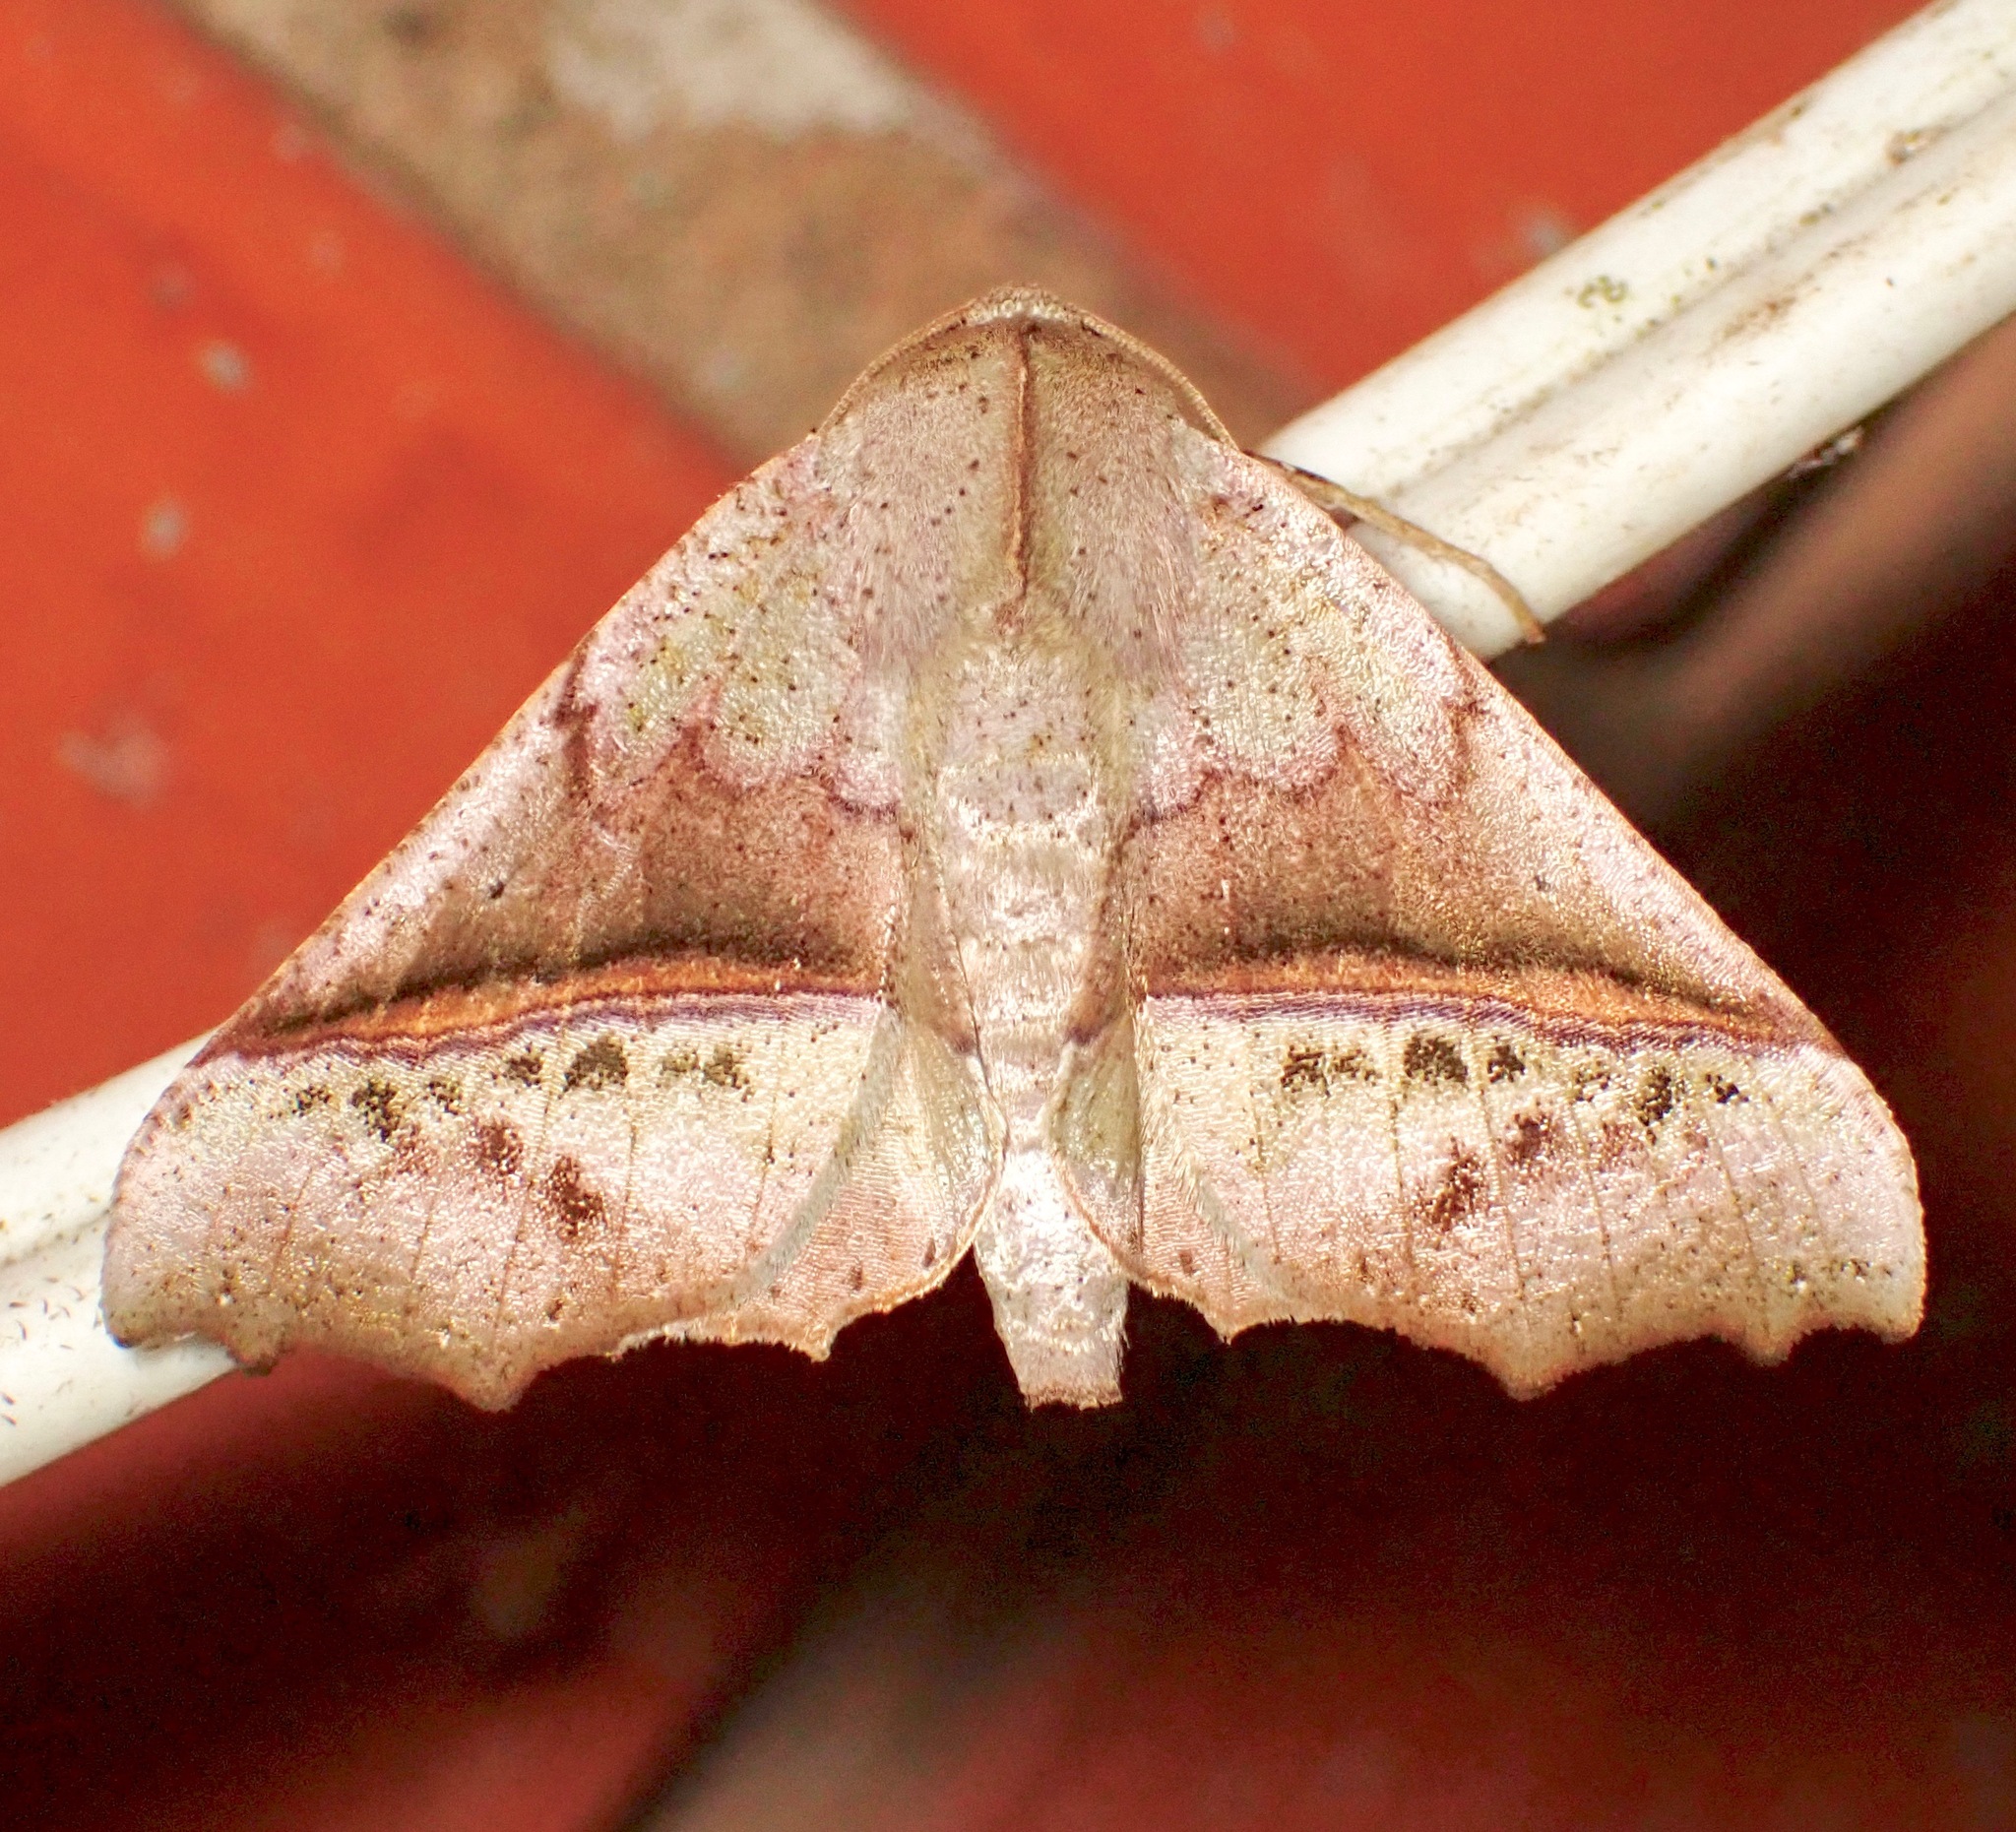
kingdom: Animalia
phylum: Arthropoda
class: Insecta
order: Lepidoptera
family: Geometridae
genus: Pero
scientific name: Pero buckleyi
